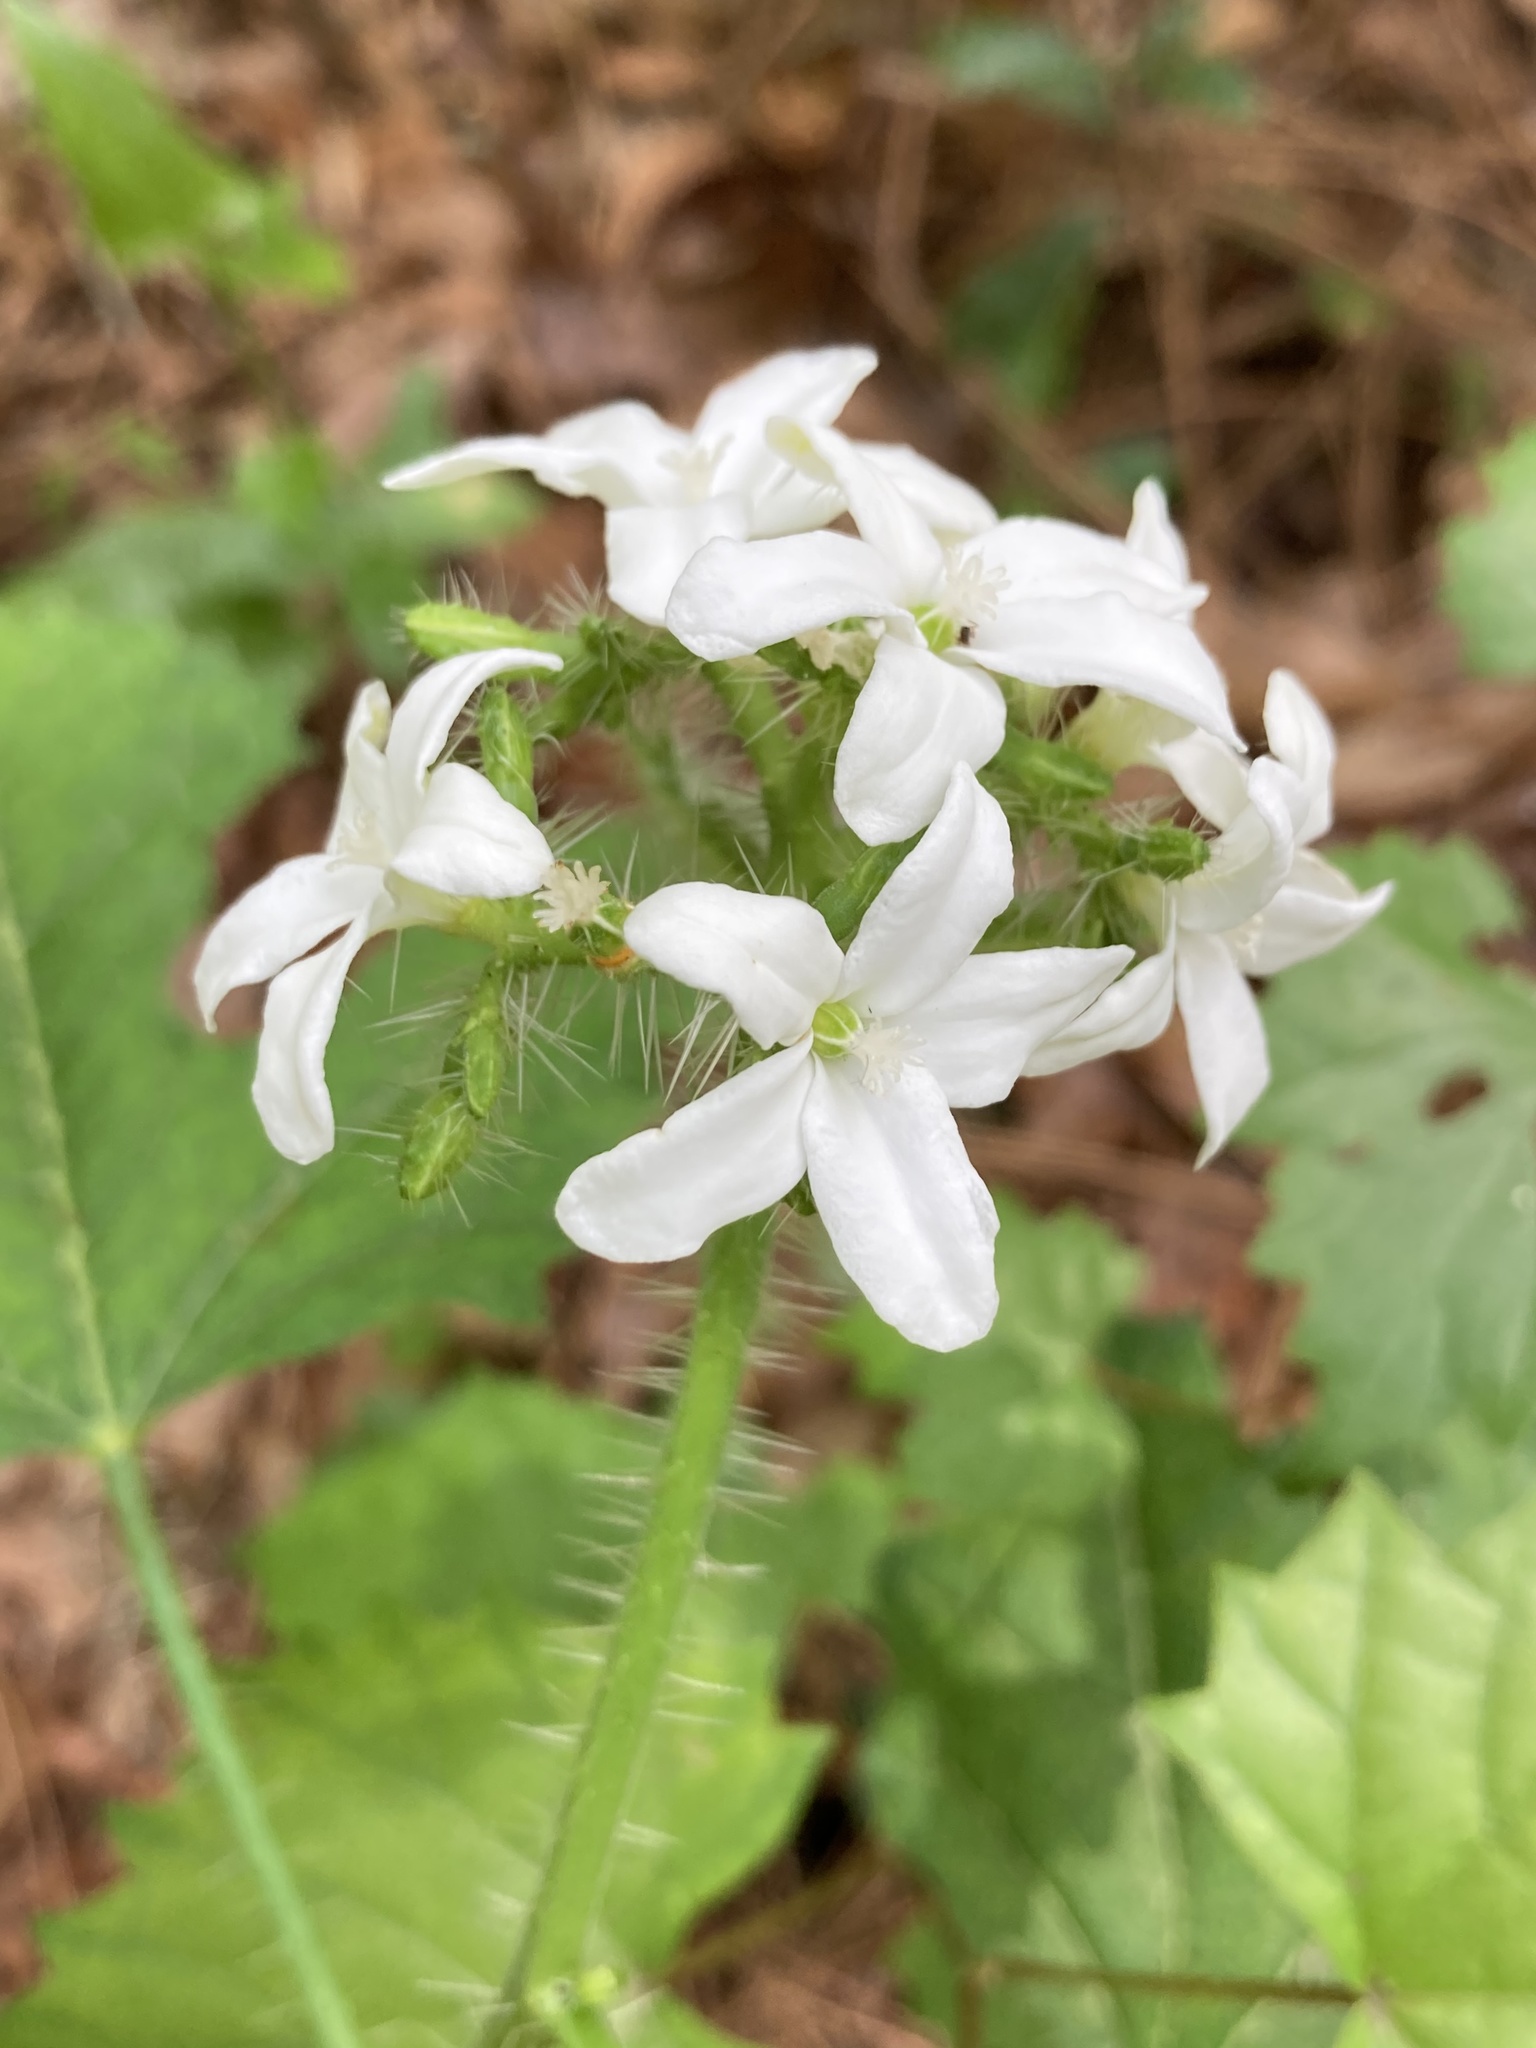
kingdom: Plantae
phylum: Tracheophyta
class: Magnoliopsida
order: Malpighiales
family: Euphorbiaceae
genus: Cnidoscolus
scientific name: Cnidoscolus stimulosus
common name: Bull-nettle
